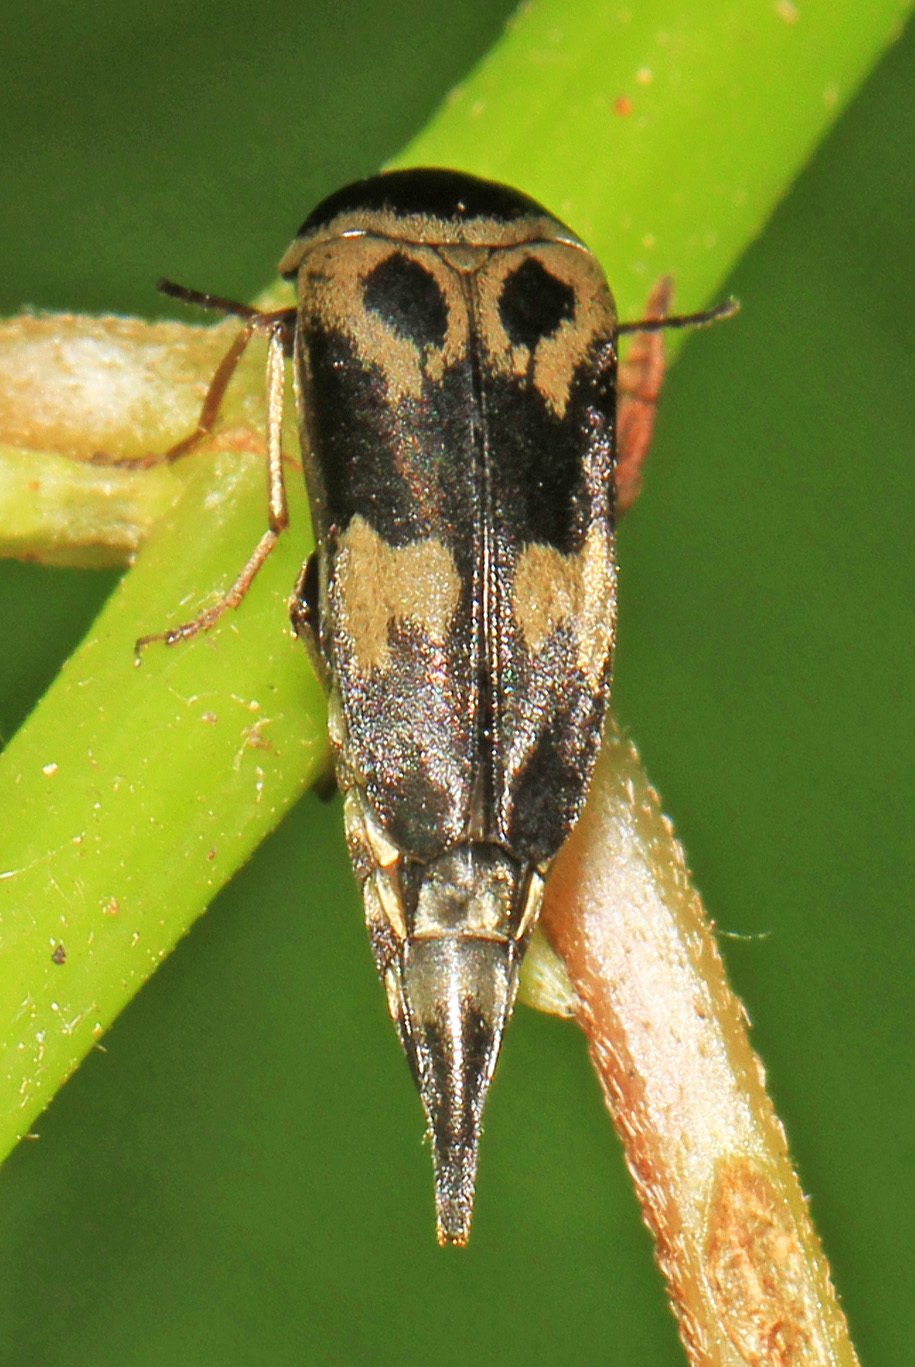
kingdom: Animalia
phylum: Arthropoda
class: Insecta
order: Coleoptera
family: Mordellidae
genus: Glipa
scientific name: Glipa oculata
